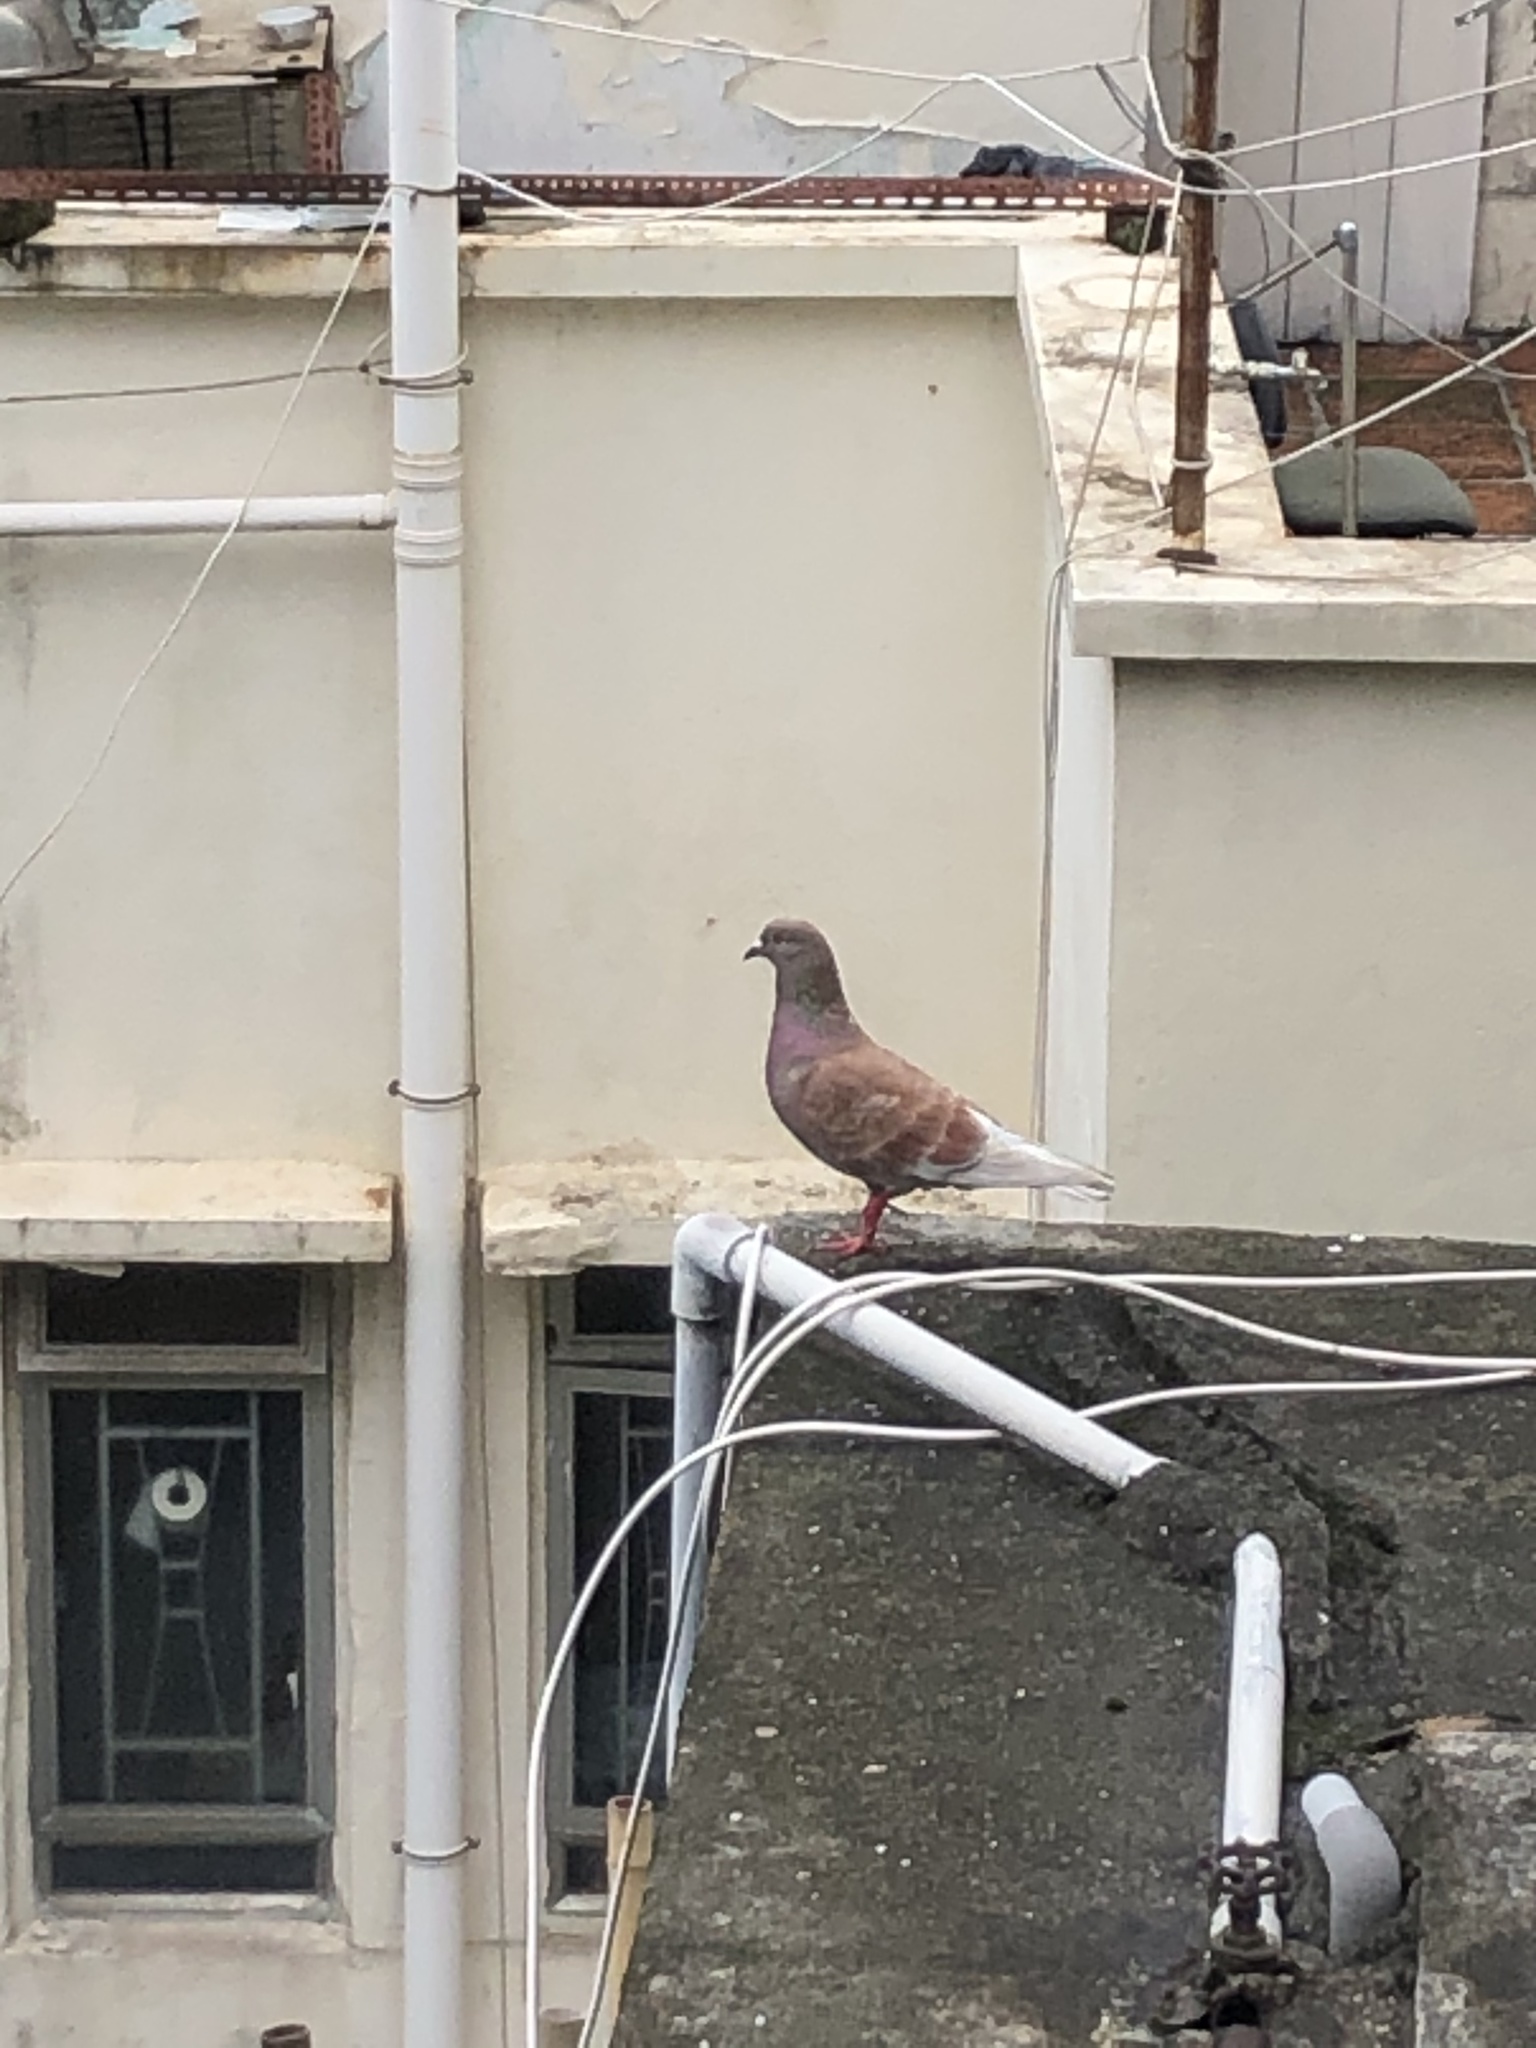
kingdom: Animalia
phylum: Chordata
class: Aves
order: Columbiformes
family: Columbidae
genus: Columba
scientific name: Columba livia
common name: Rock pigeon
